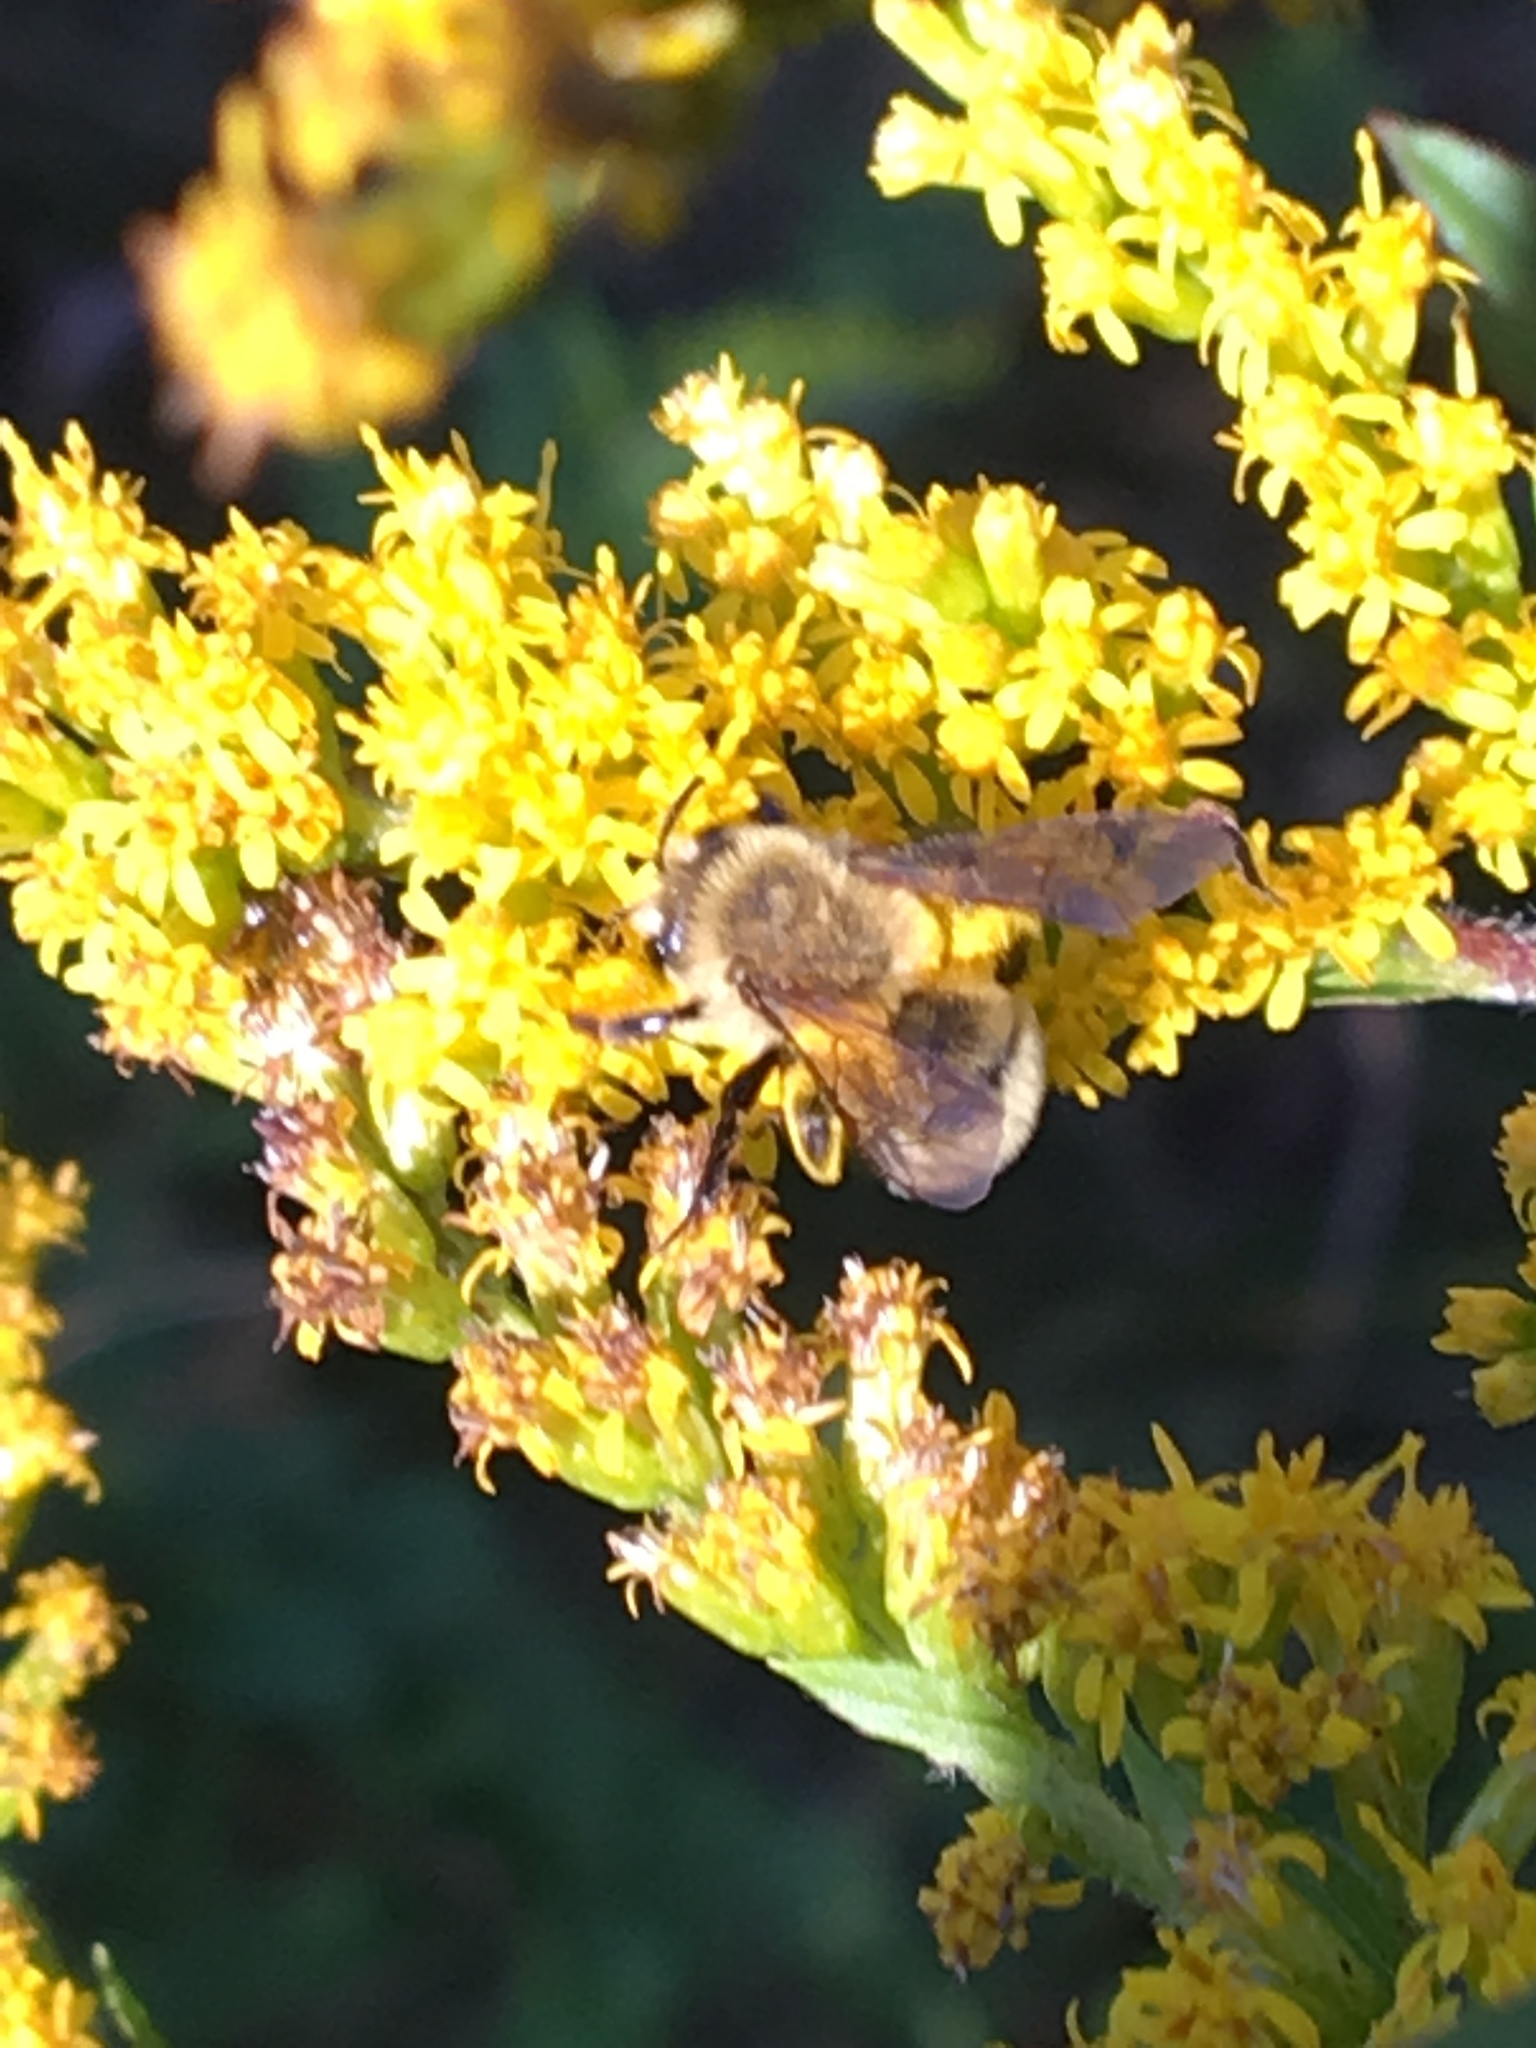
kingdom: Animalia
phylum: Arthropoda
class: Insecta
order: Hymenoptera
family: Andrenidae
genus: Andrena
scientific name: Andrena hirticincta
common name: Hairy-banded mining bee
